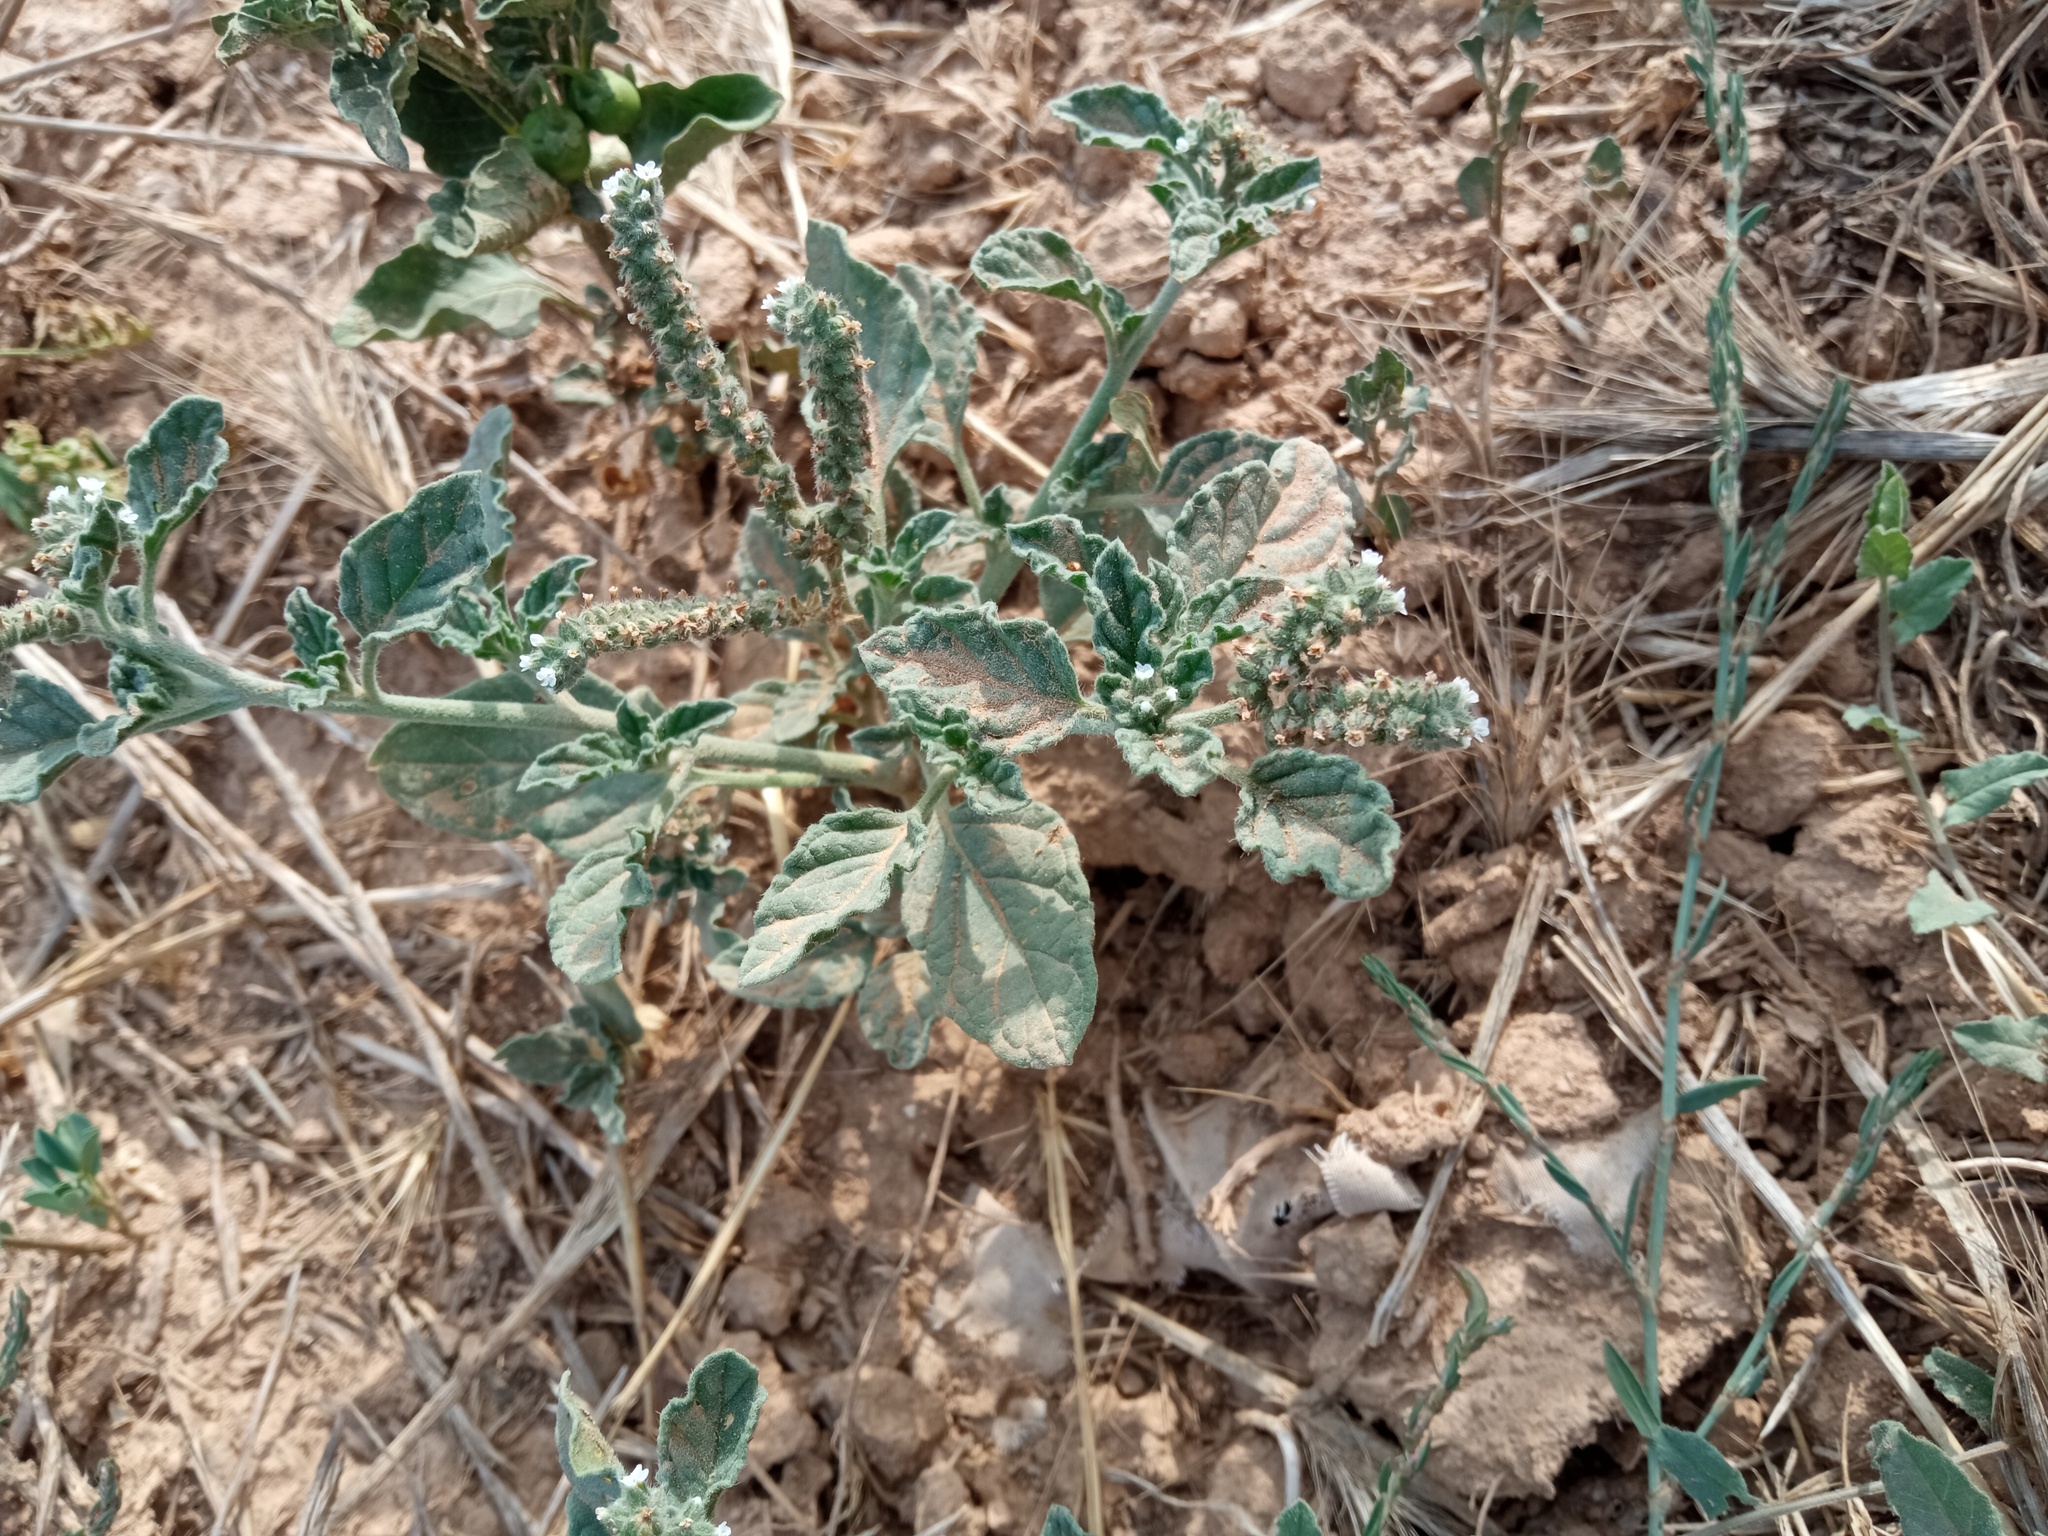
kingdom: Plantae
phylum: Tracheophyta
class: Magnoliopsida
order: Boraginales
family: Heliotropiaceae
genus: Heliotropium
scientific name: Heliotropium europaeum
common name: European heliotrope
